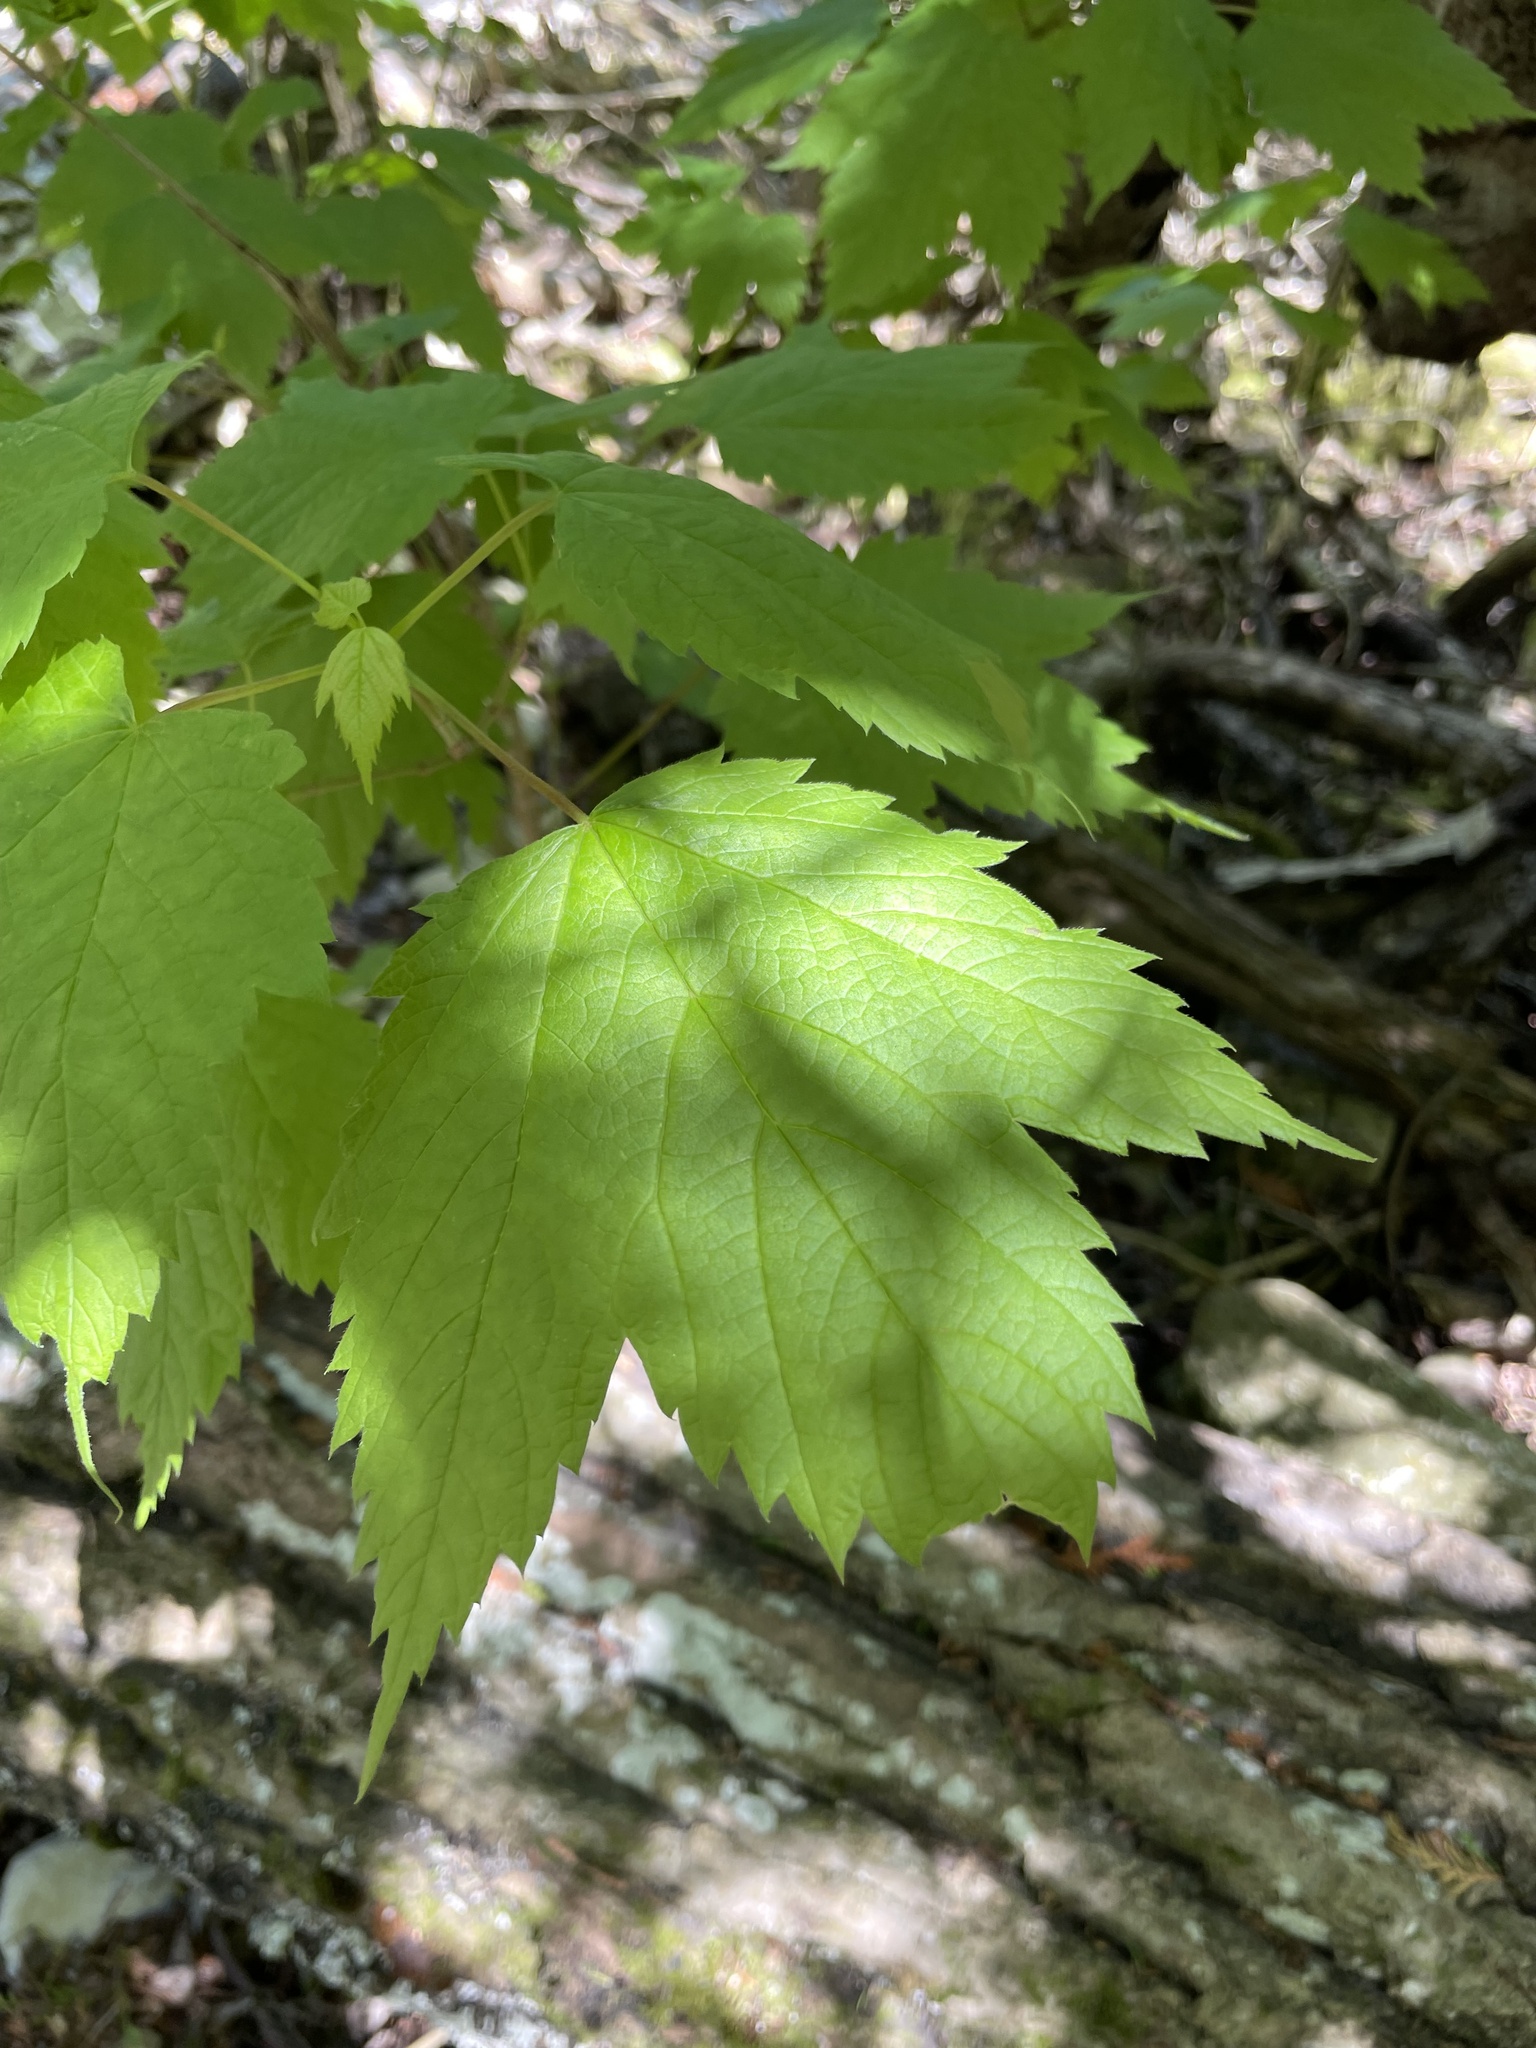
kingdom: Plantae
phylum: Tracheophyta
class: Magnoliopsida
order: Sapindales
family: Sapindaceae
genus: Acer
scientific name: Acer spicatum
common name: Mountain maple
